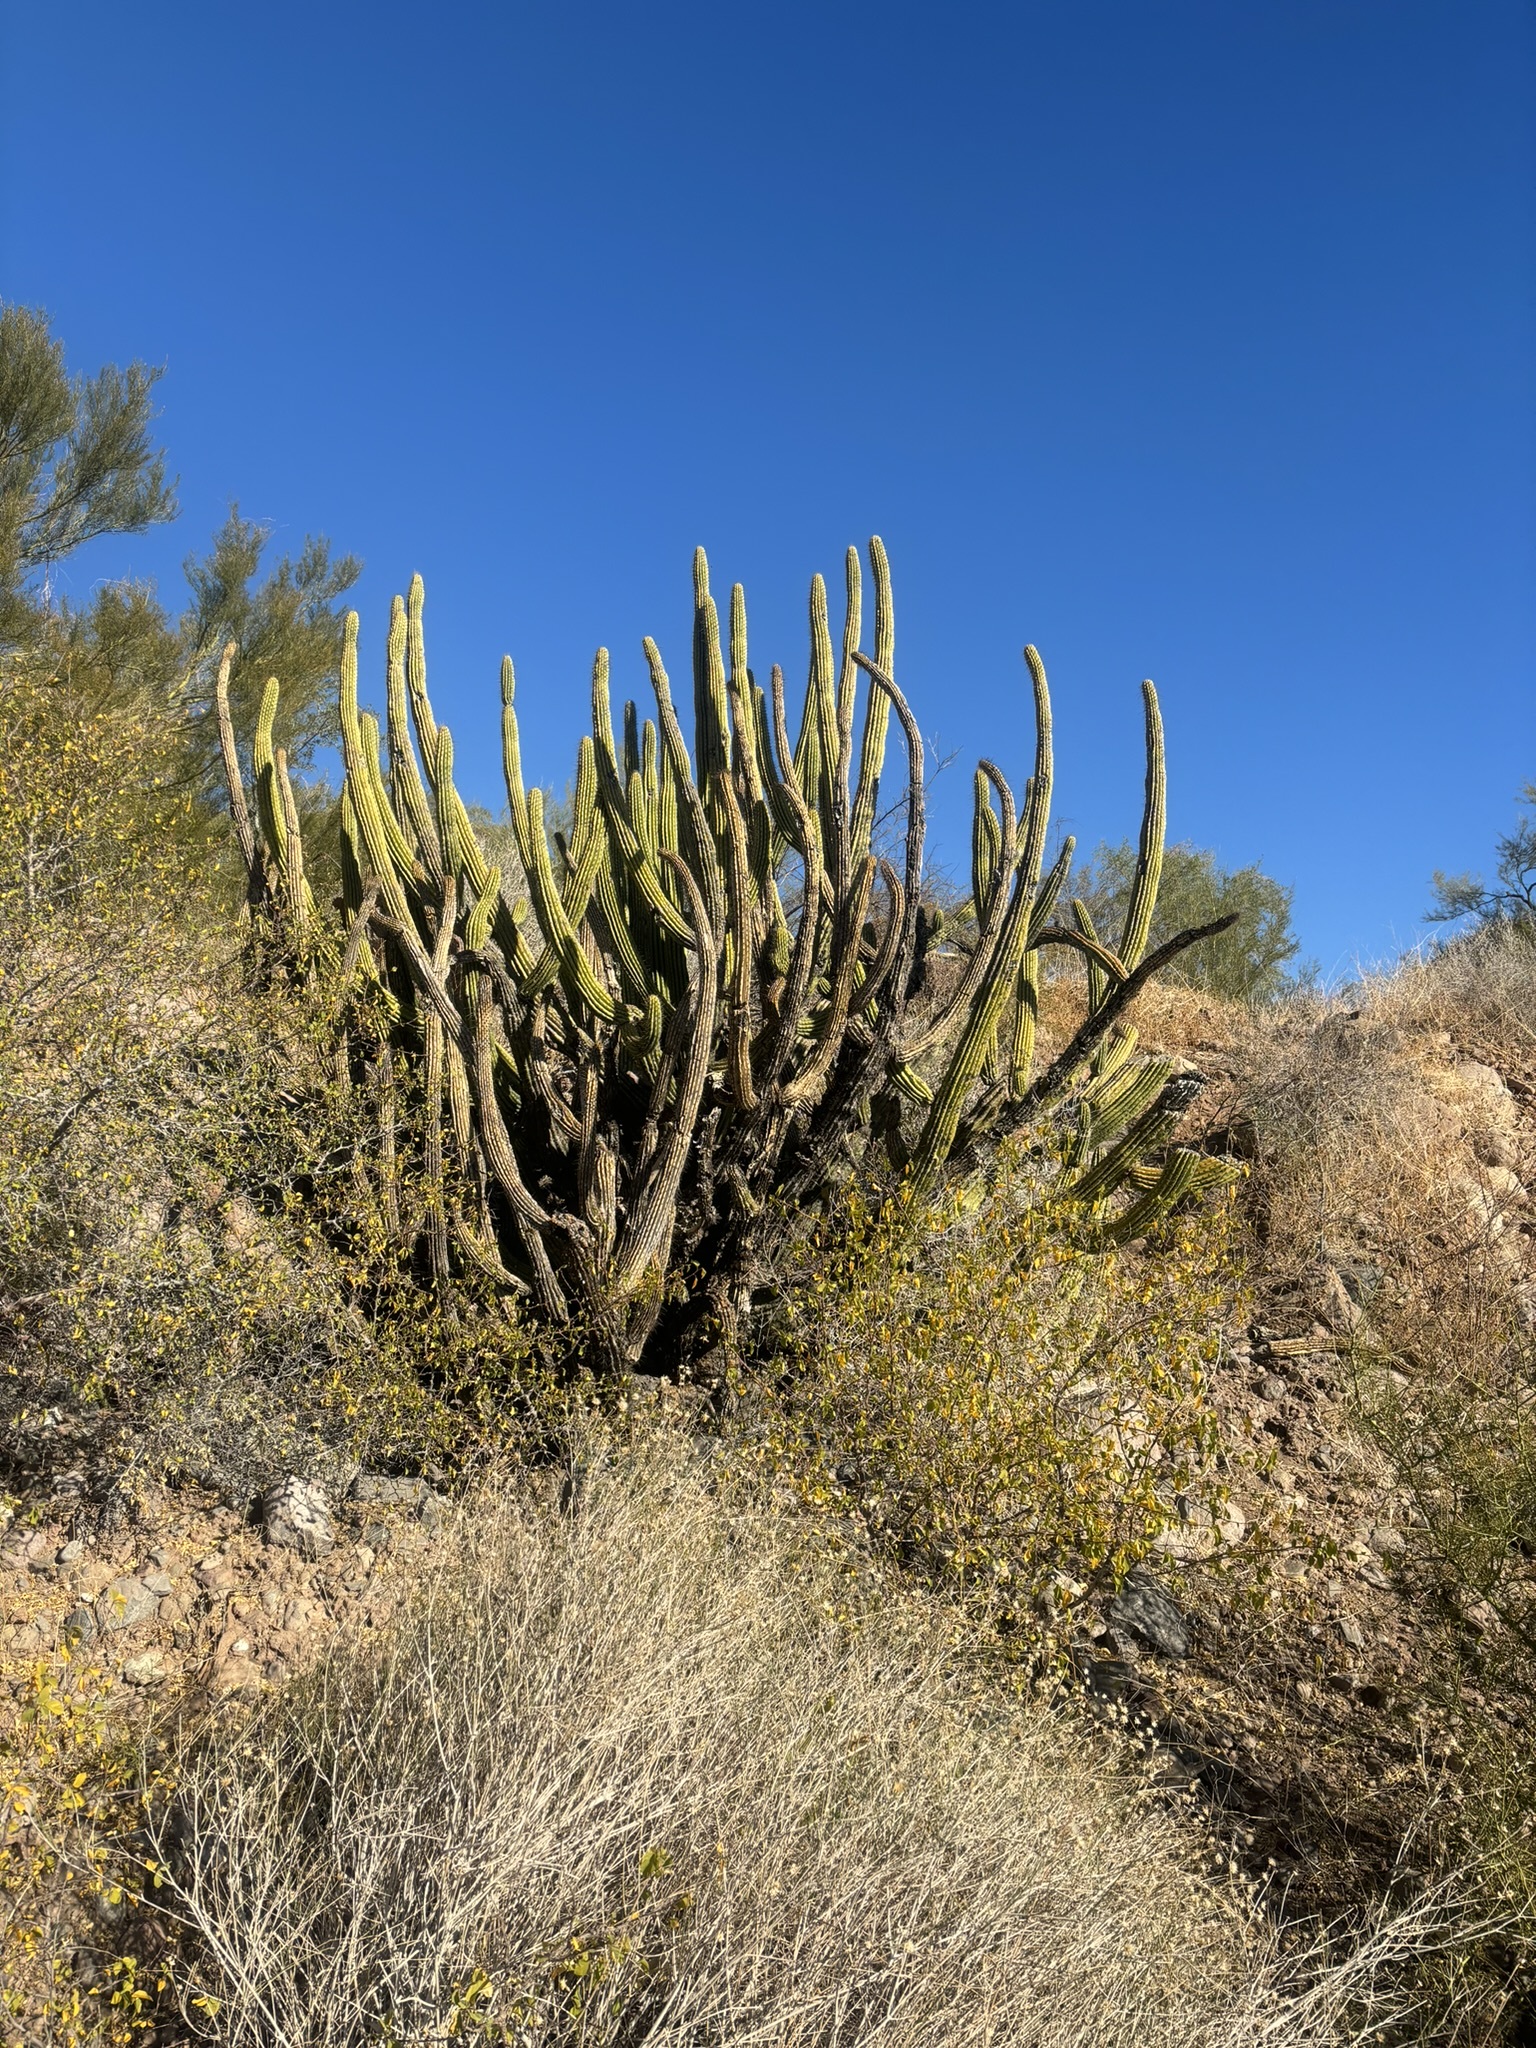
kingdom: Plantae
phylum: Tracheophyta
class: Magnoliopsida
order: Caryophyllales
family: Cactaceae
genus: Stenocereus
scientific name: Stenocereus thurberi
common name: Organ pipe cactus
